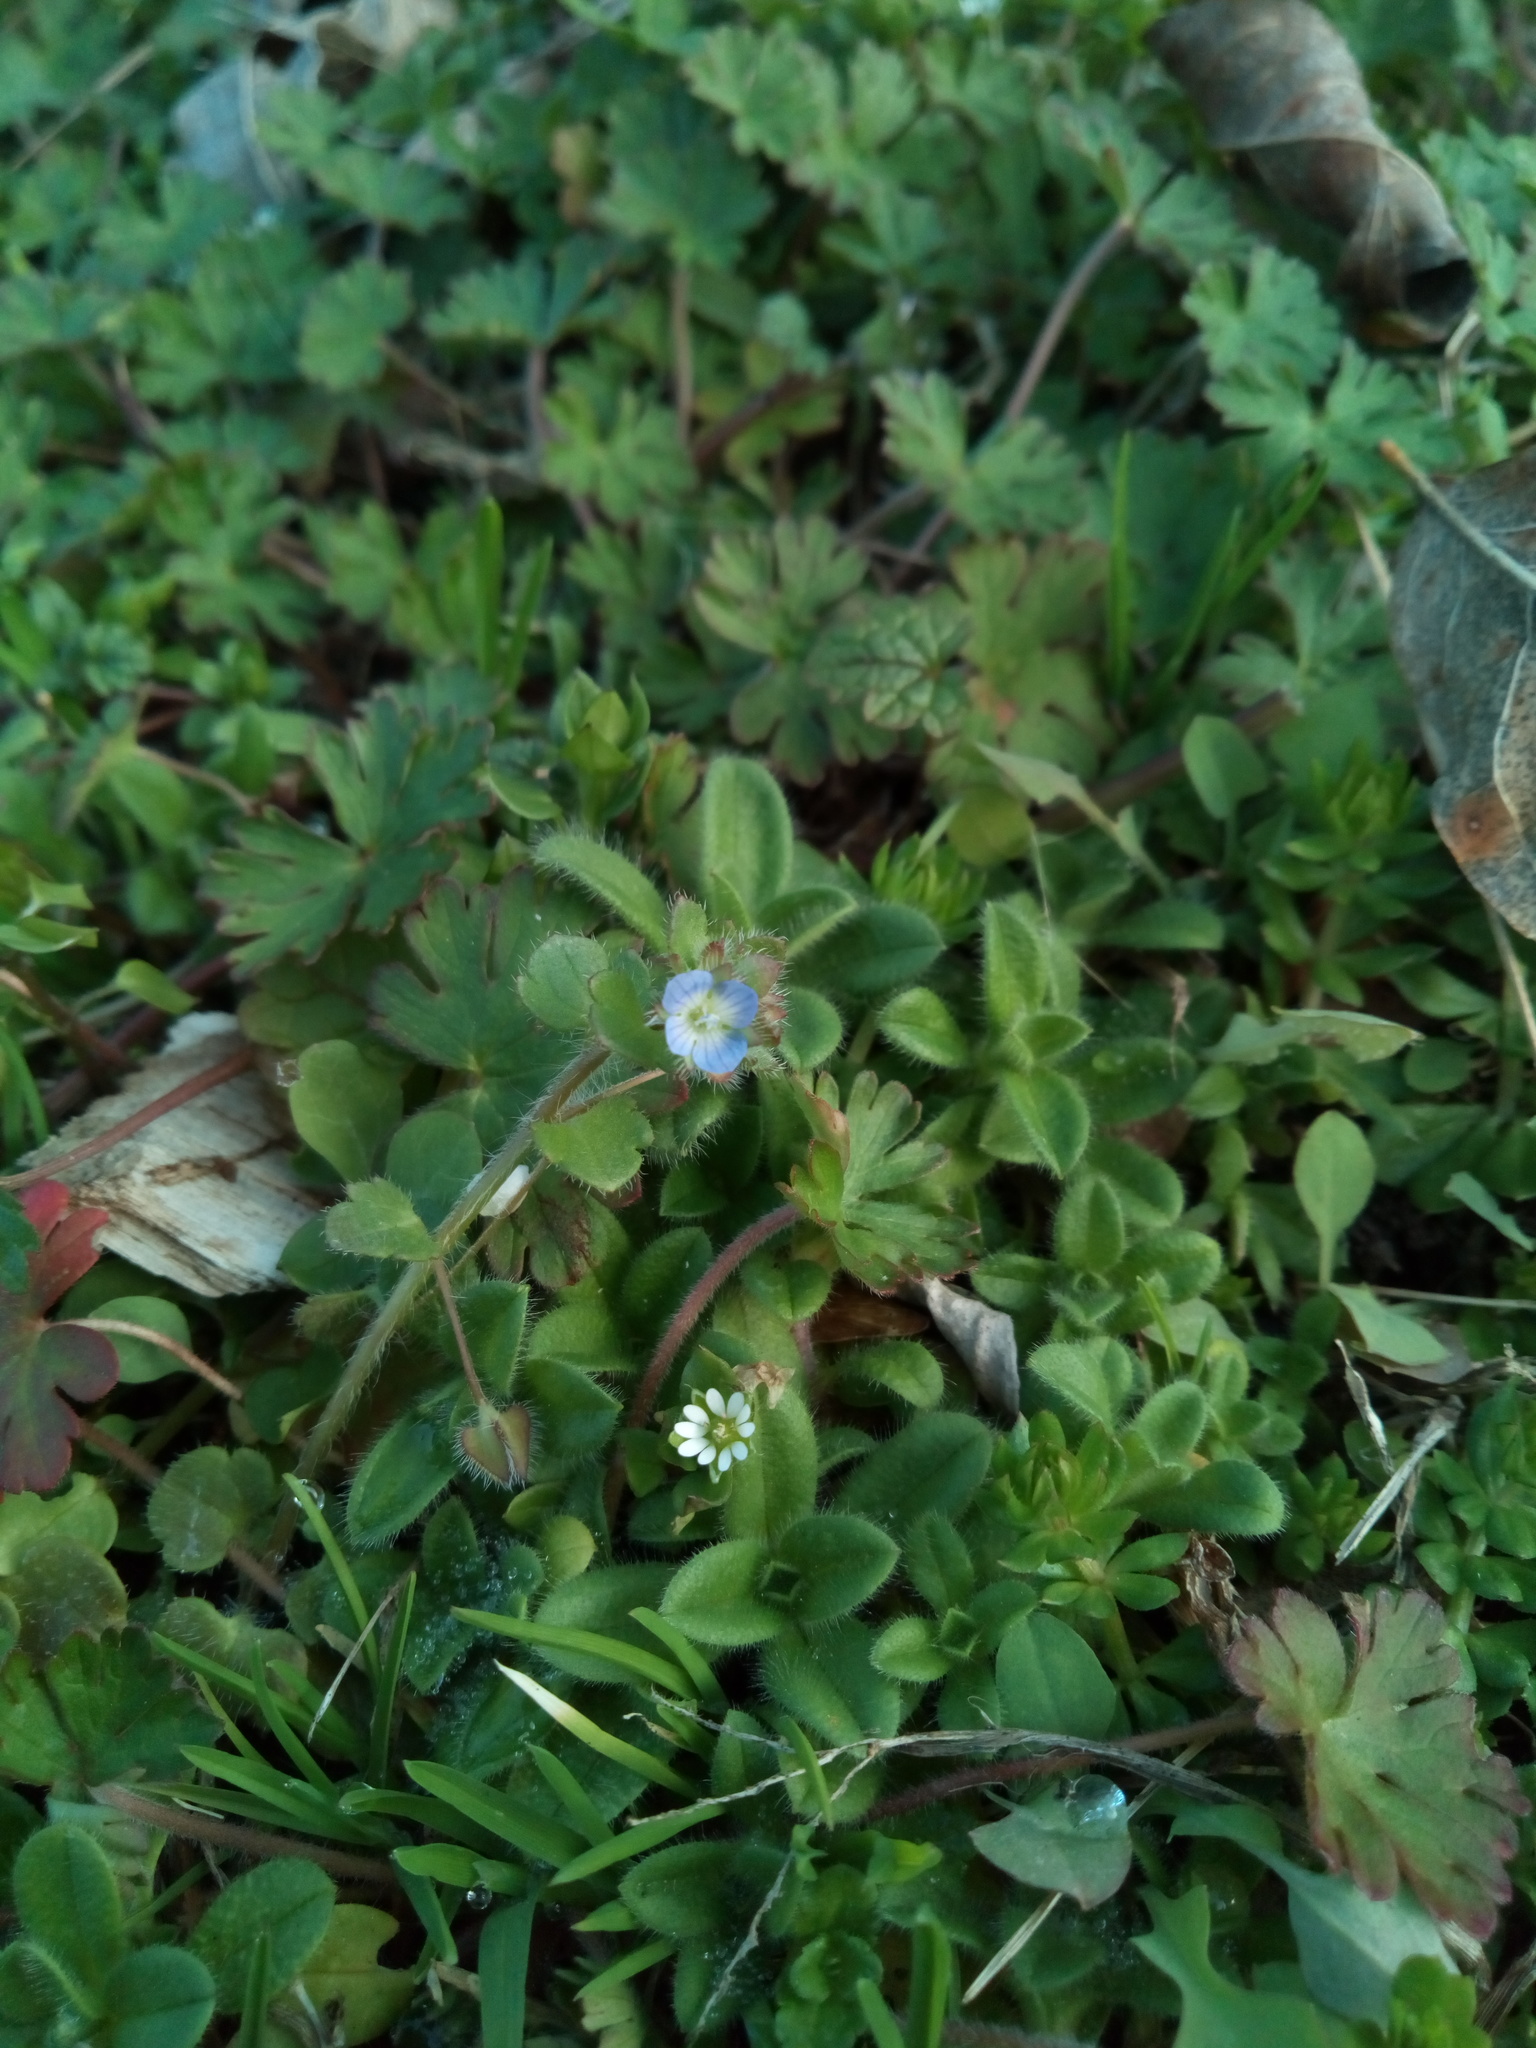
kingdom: Plantae
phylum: Tracheophyta
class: Magnoliopsida
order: Lamiales
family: Plantaginaceae
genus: Veronica
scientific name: Veronica hederifolia
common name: Ivy-leaved speedwell
